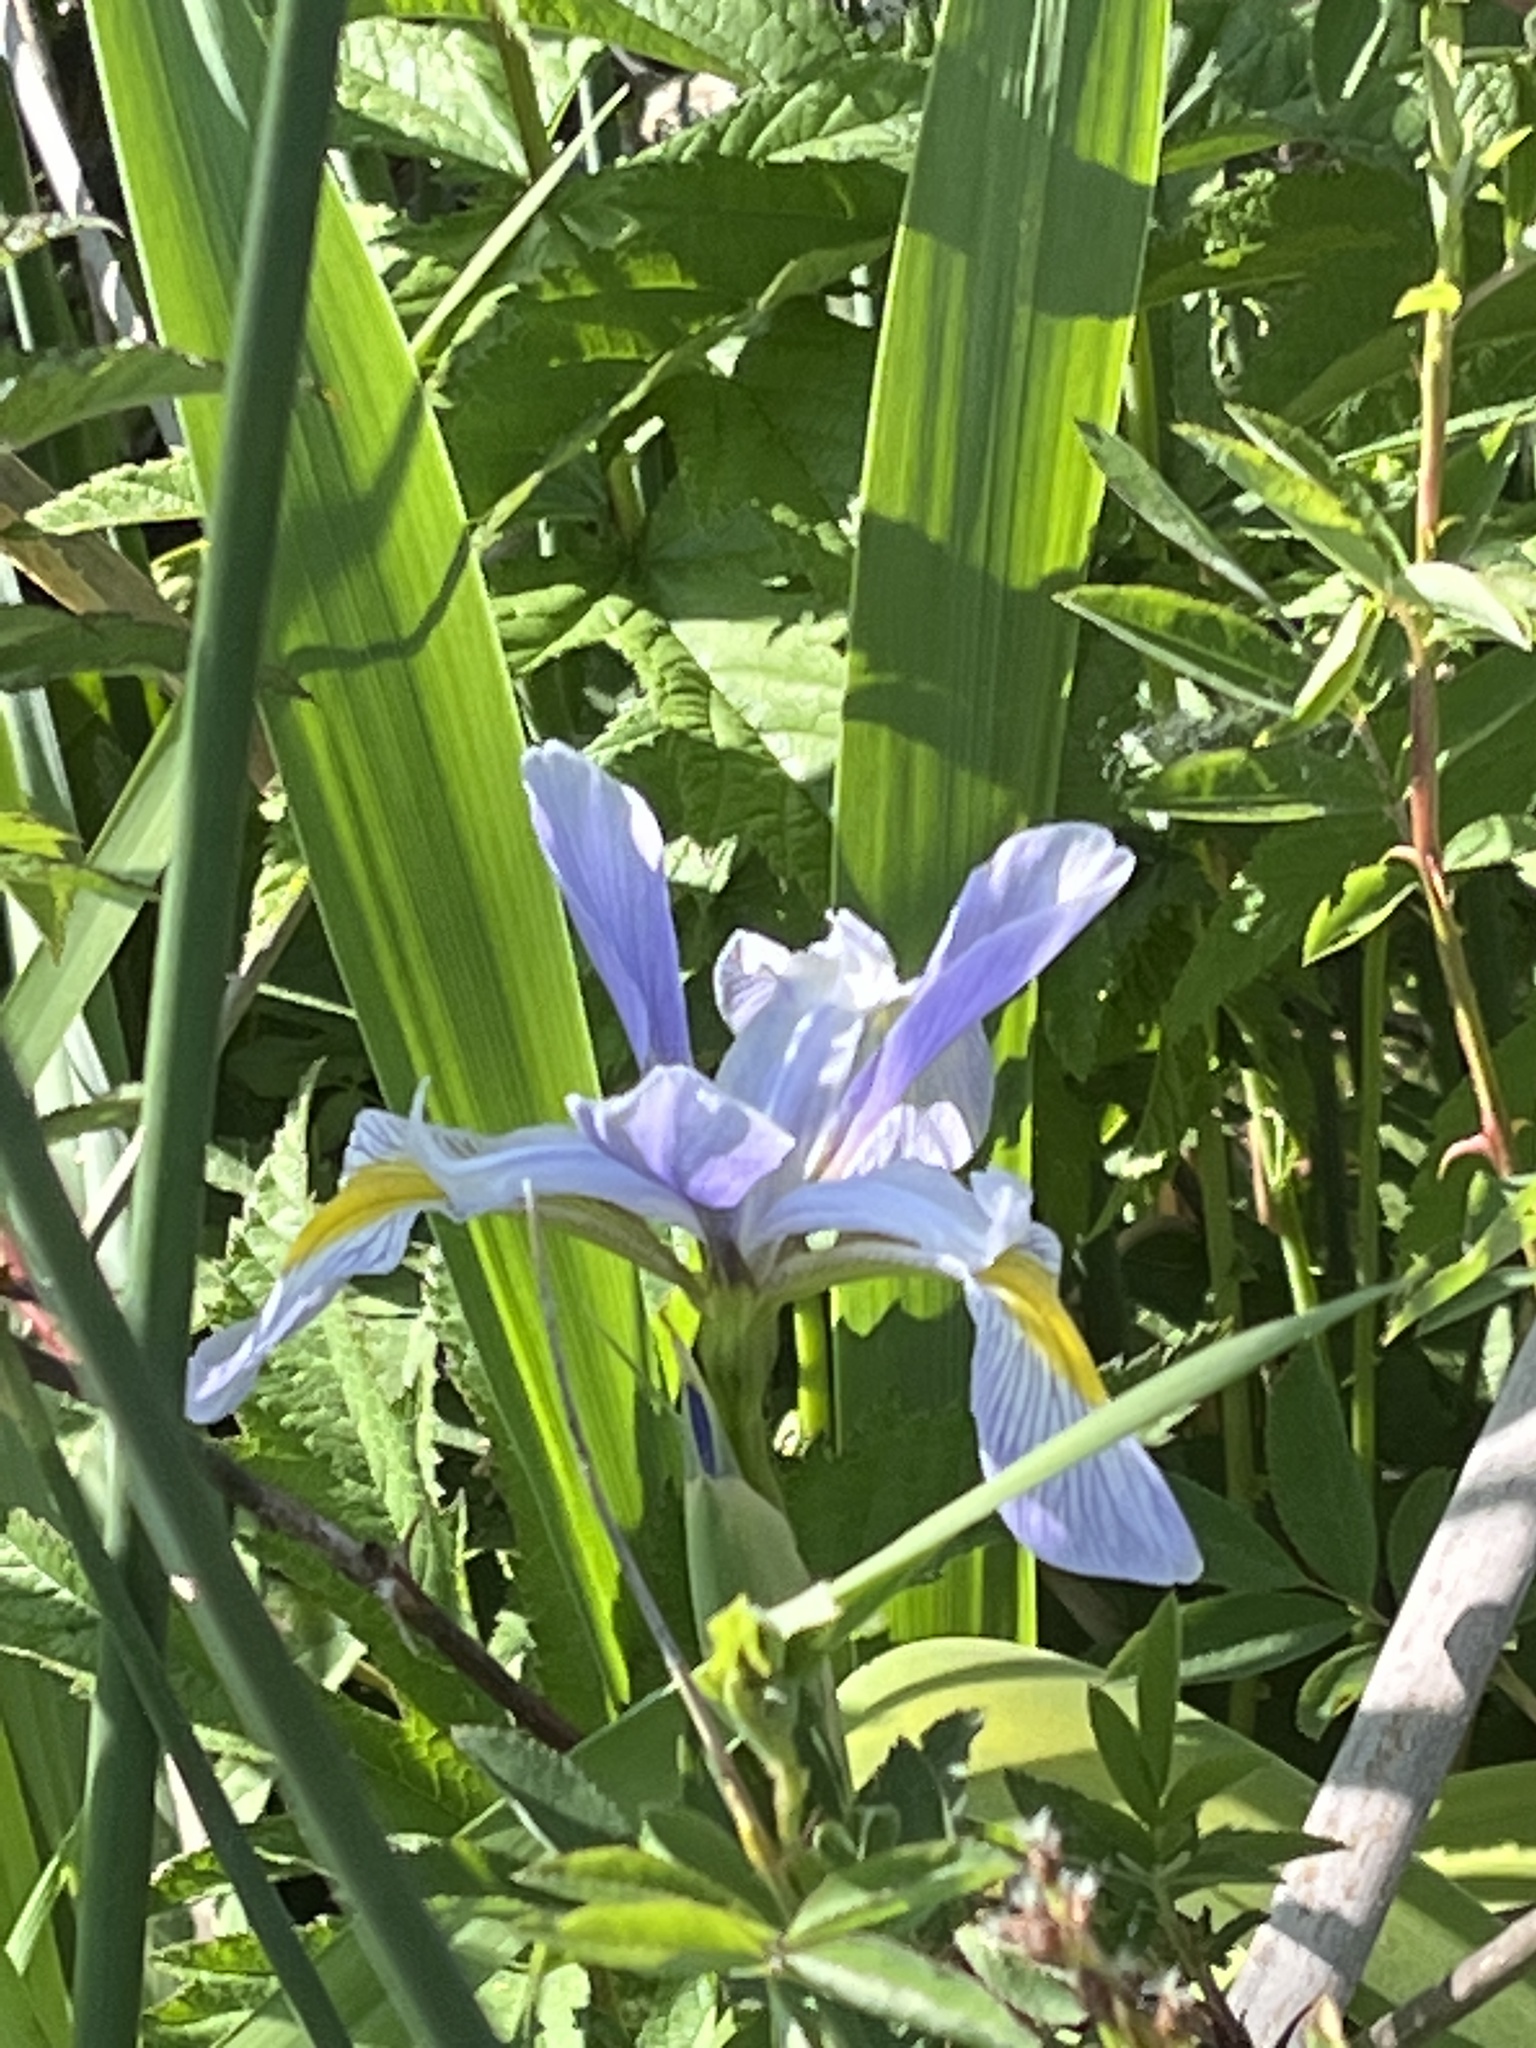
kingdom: Plantae
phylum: Tracheophyta
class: Liliopsida
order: Asparagales
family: Iridaceae
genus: Iris
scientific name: Iris virginica
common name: Southern blue flag
